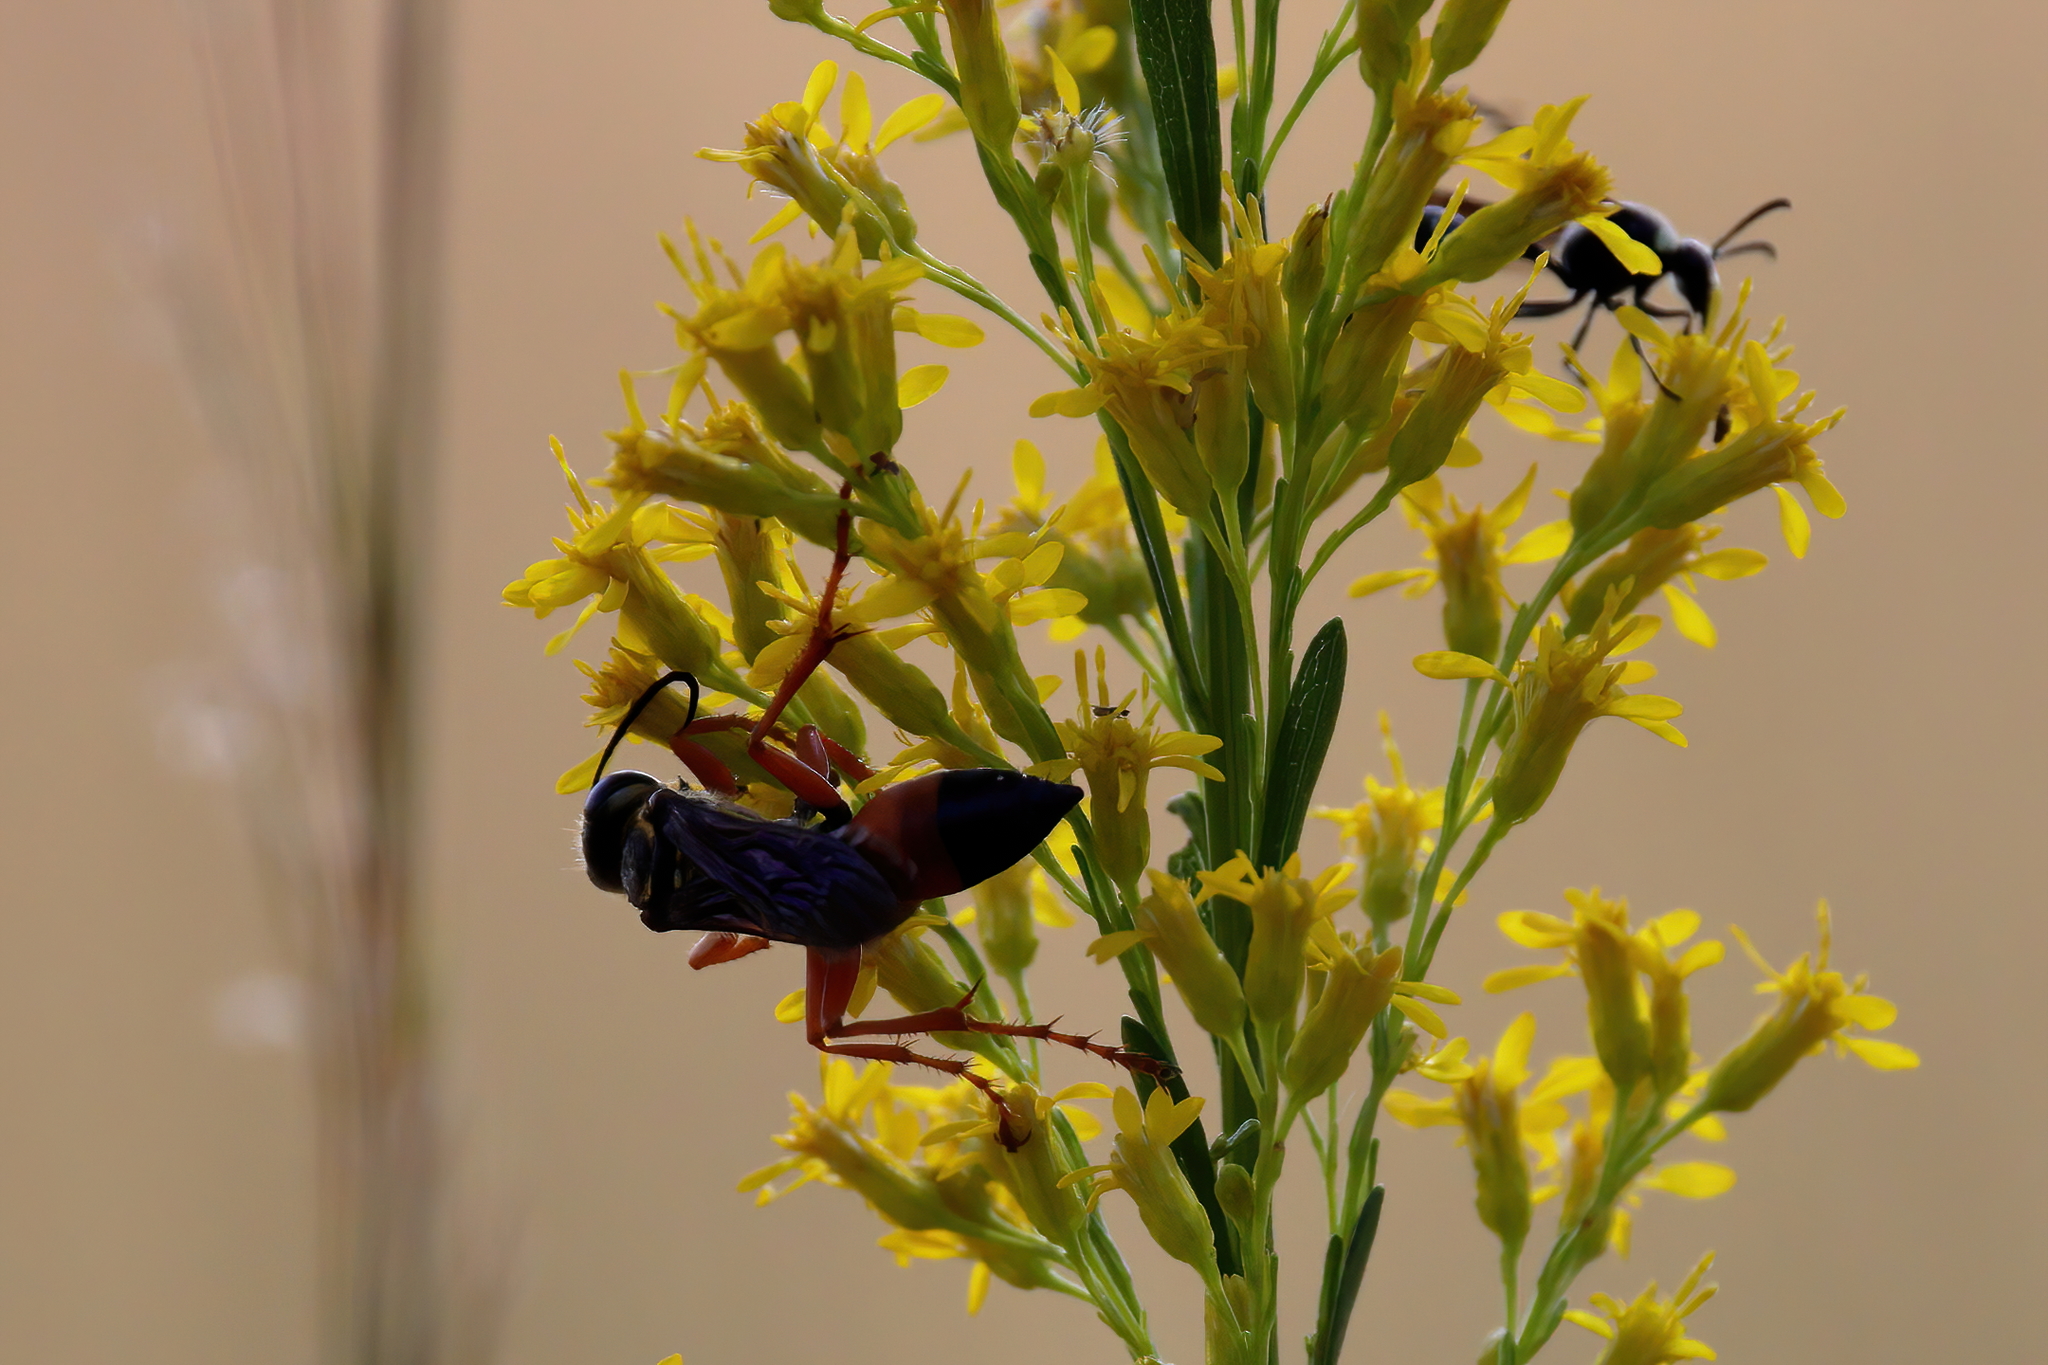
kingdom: Animalia
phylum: Arthropoda
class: Insecta
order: Hymenoptera
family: Sphecidae
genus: Sphex
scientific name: Sphex ichneumoneus
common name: Great golden digger wasp
